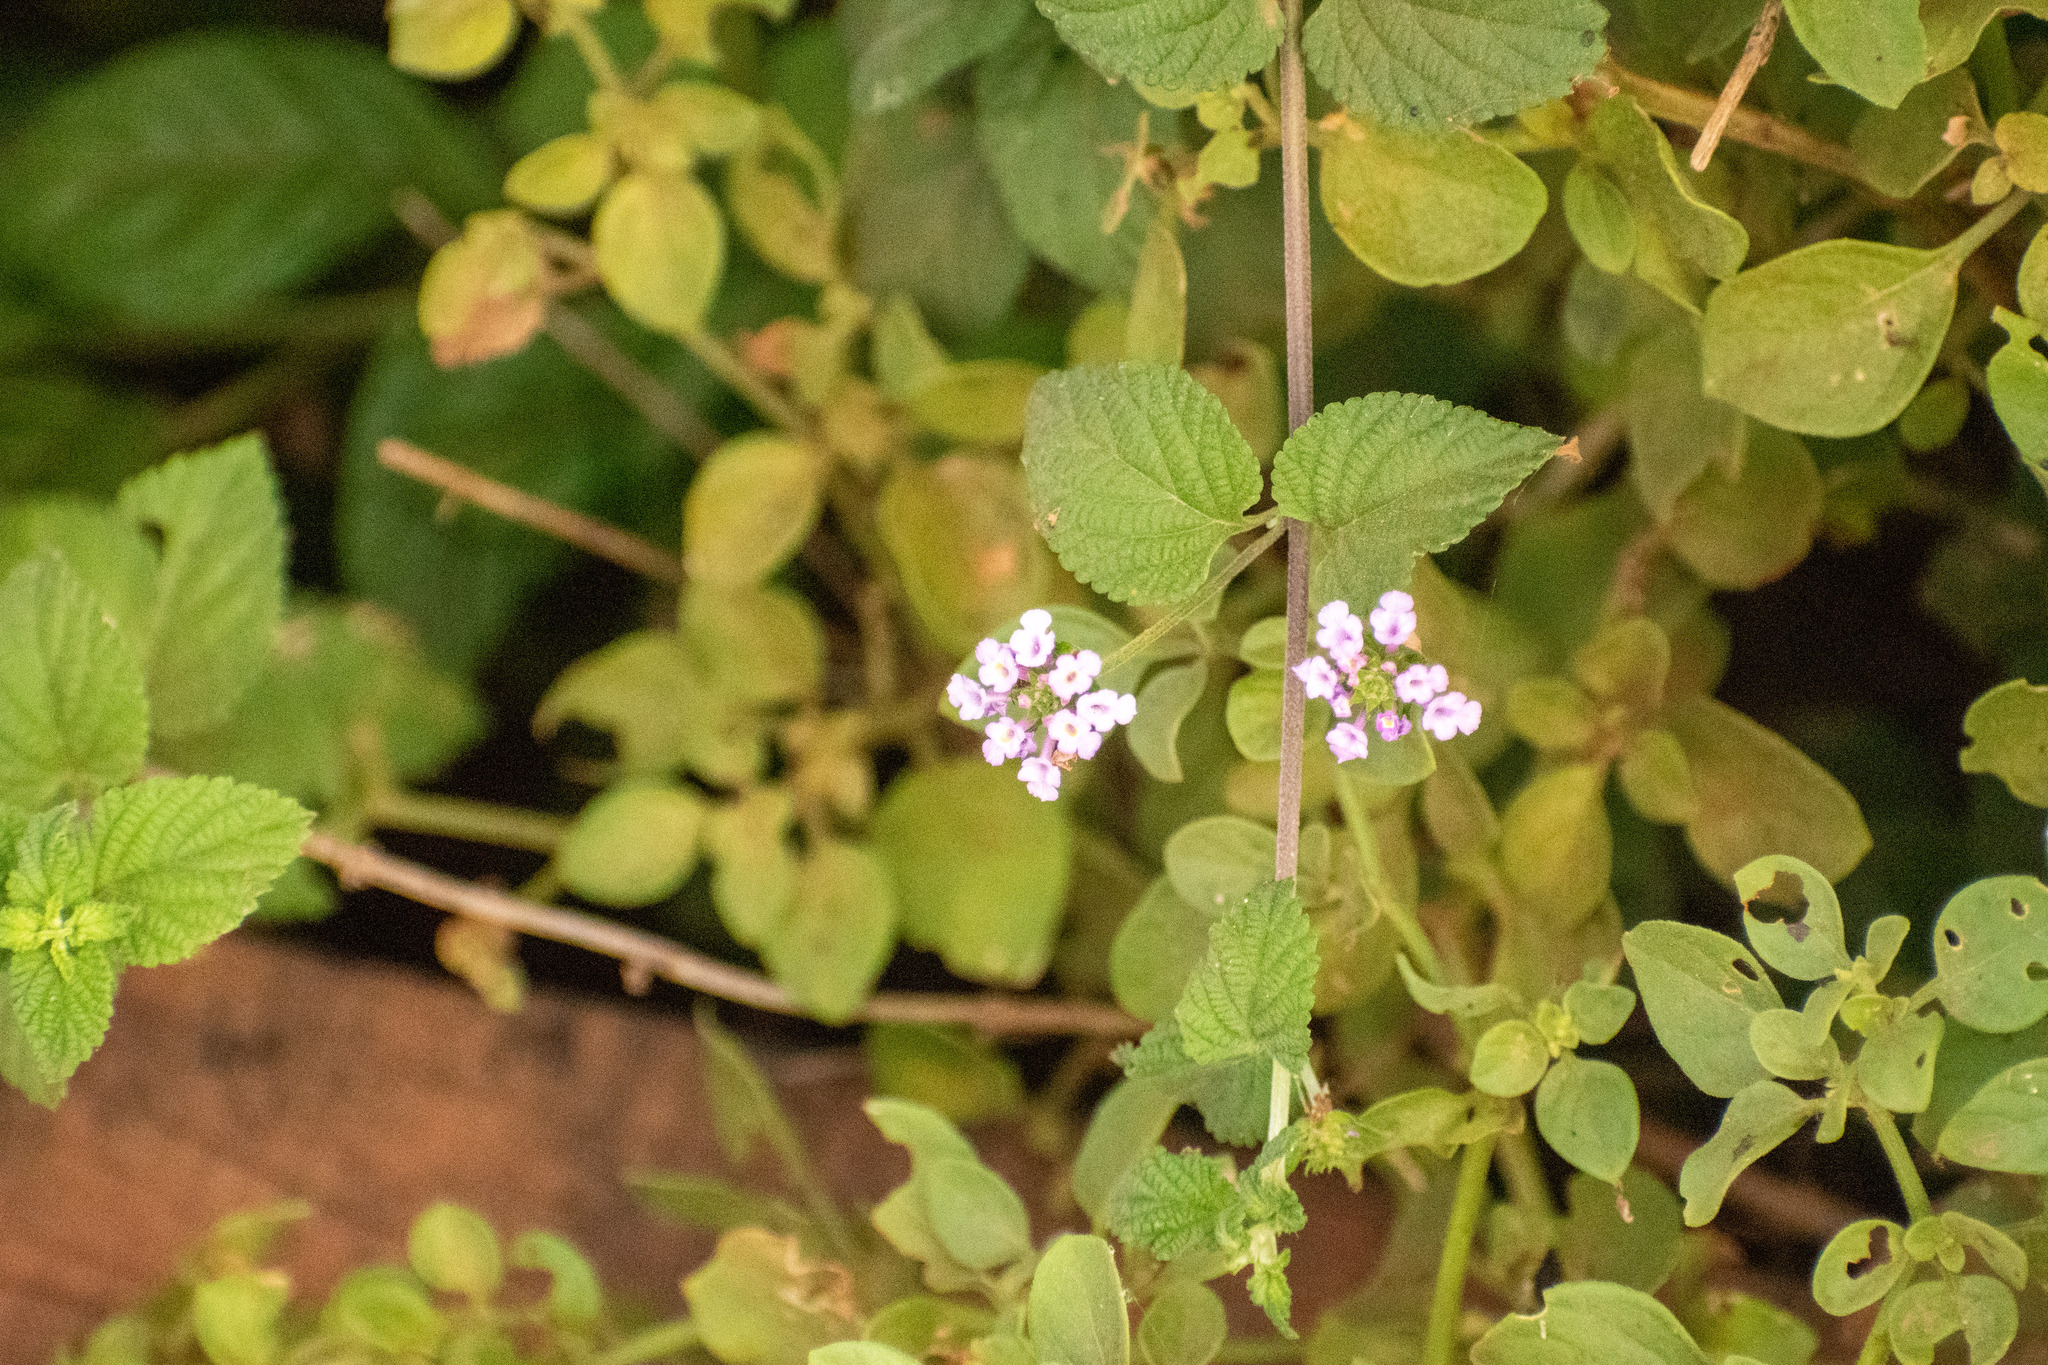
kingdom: Plantae
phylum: Tracheophyta
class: Magnoliopsida
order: Lamiales
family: Verbenaceae
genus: Lantana
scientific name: Lantana megapotamica
